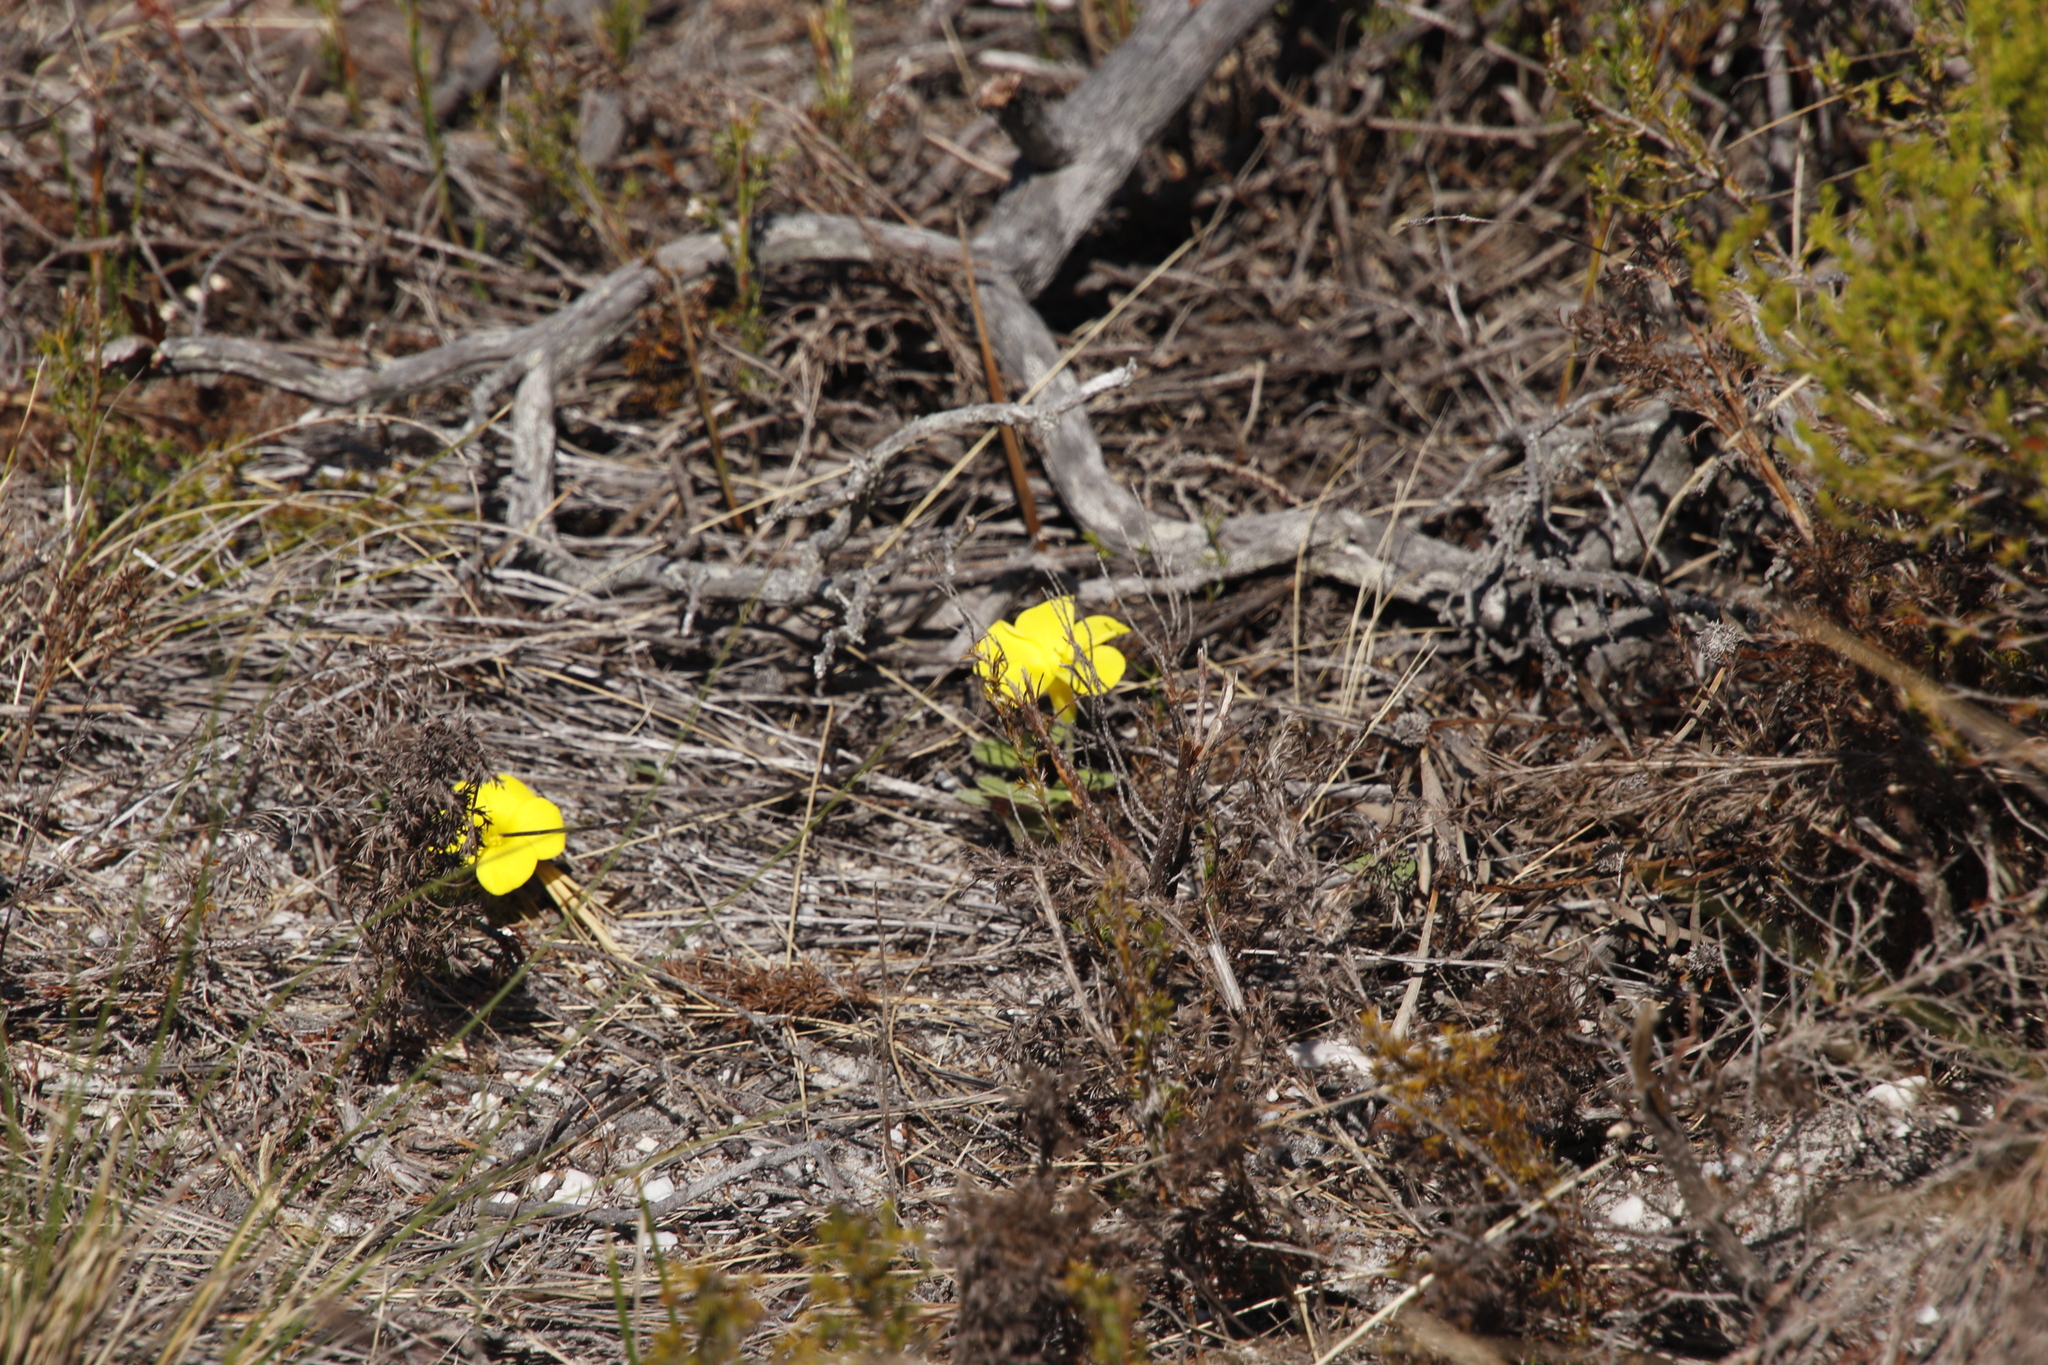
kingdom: Plantae
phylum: Tracheophyta
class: Magnoliopsida
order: Oxalidales
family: Oxalidaceae
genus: Oxalis
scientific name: Oxalis luteola
